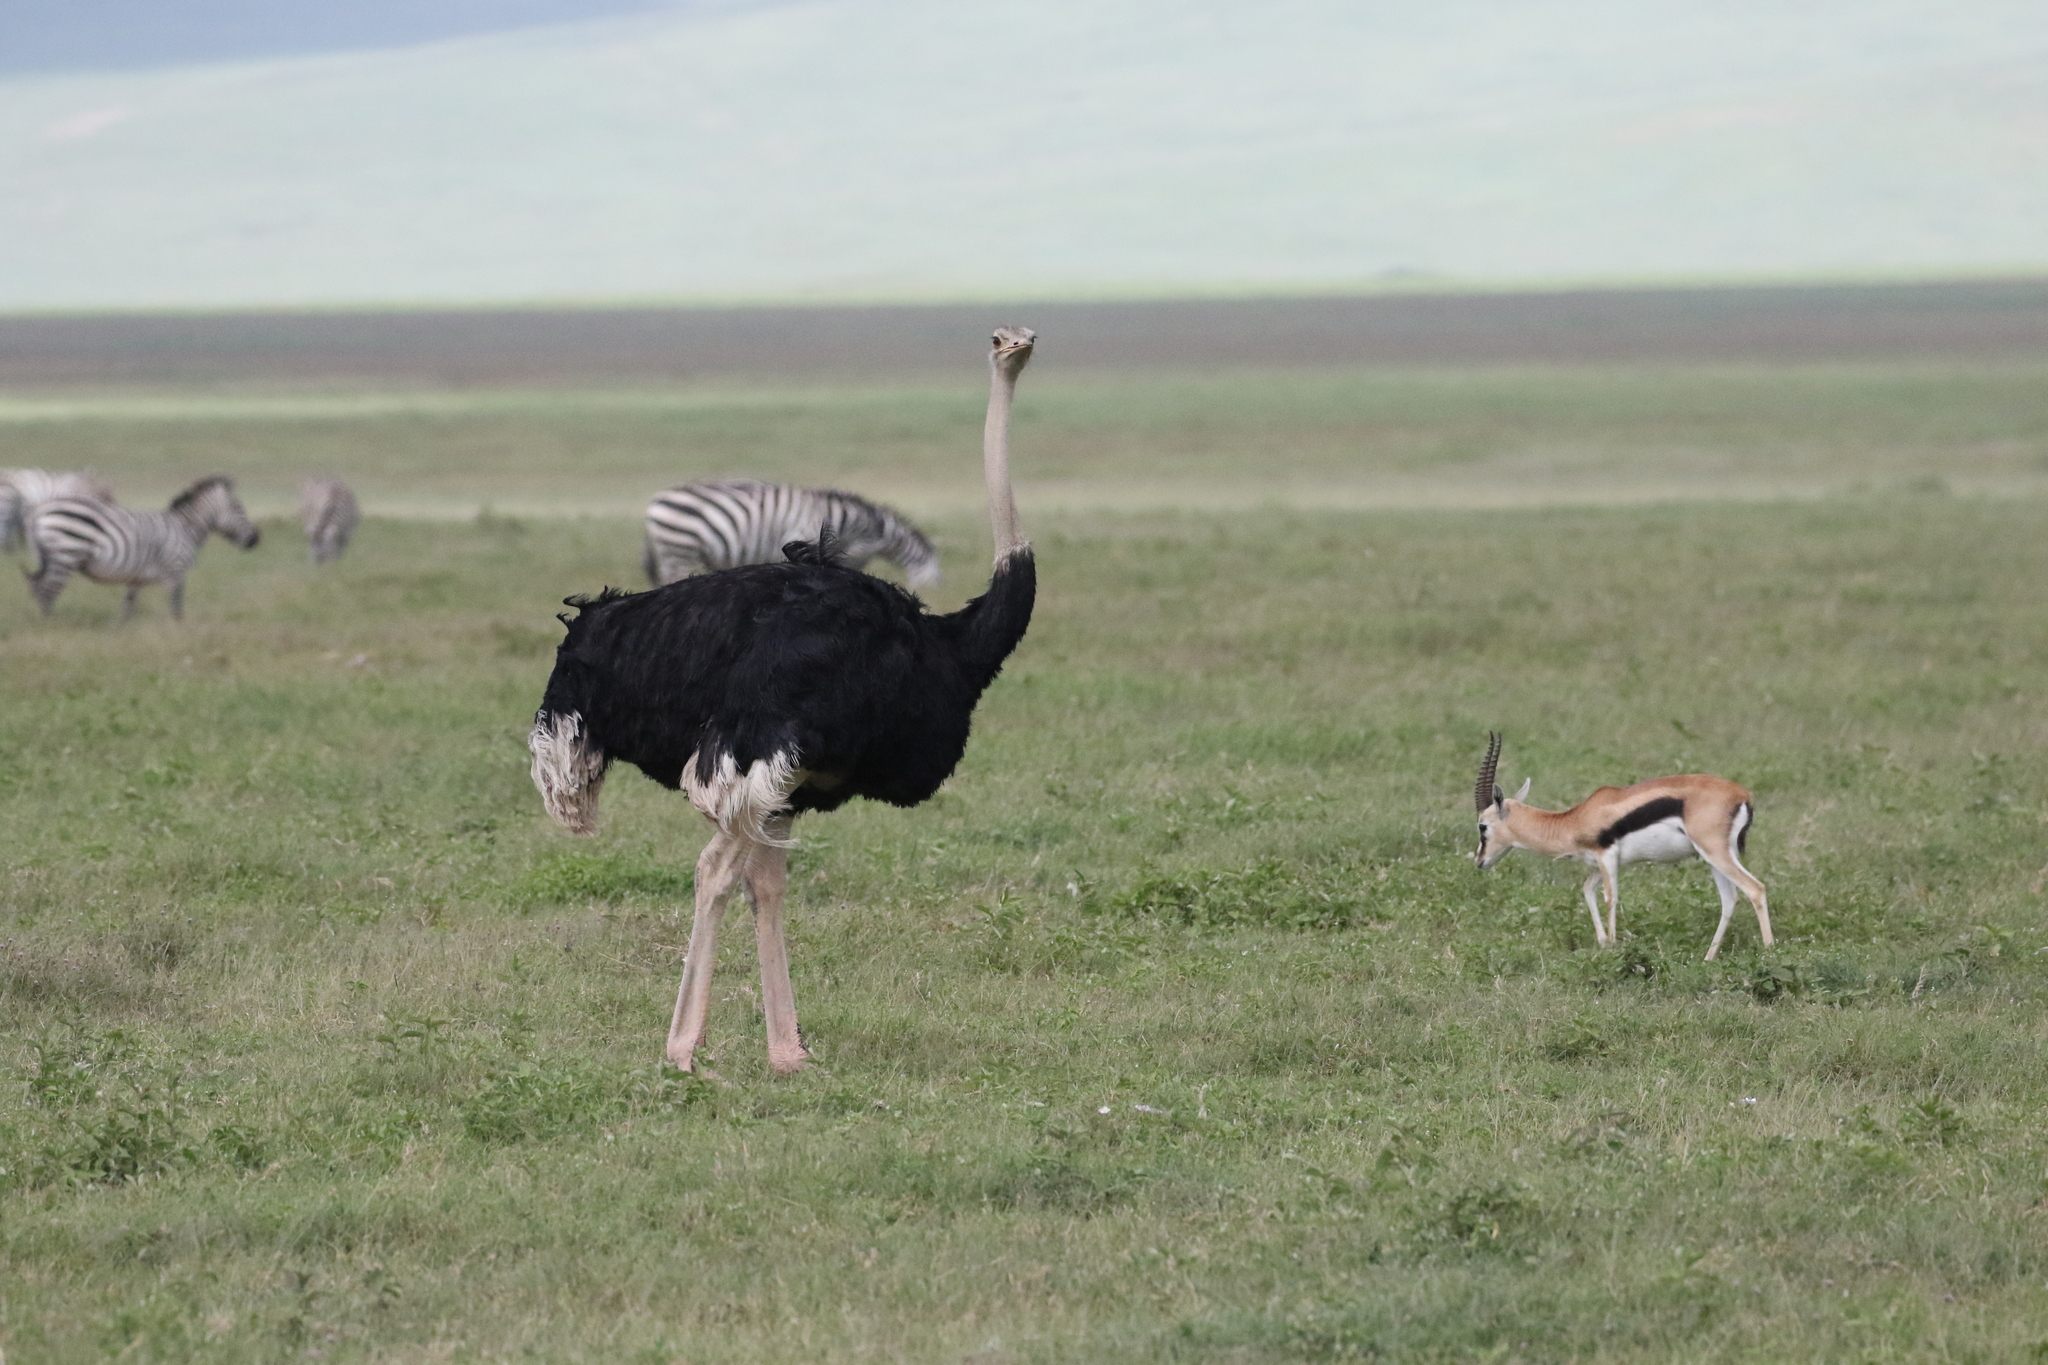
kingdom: Animalia
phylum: Chordata
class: Aves
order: Struthioniformes
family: Struthionidae
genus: Struthio
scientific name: Struthio camelus
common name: Common ostrich
